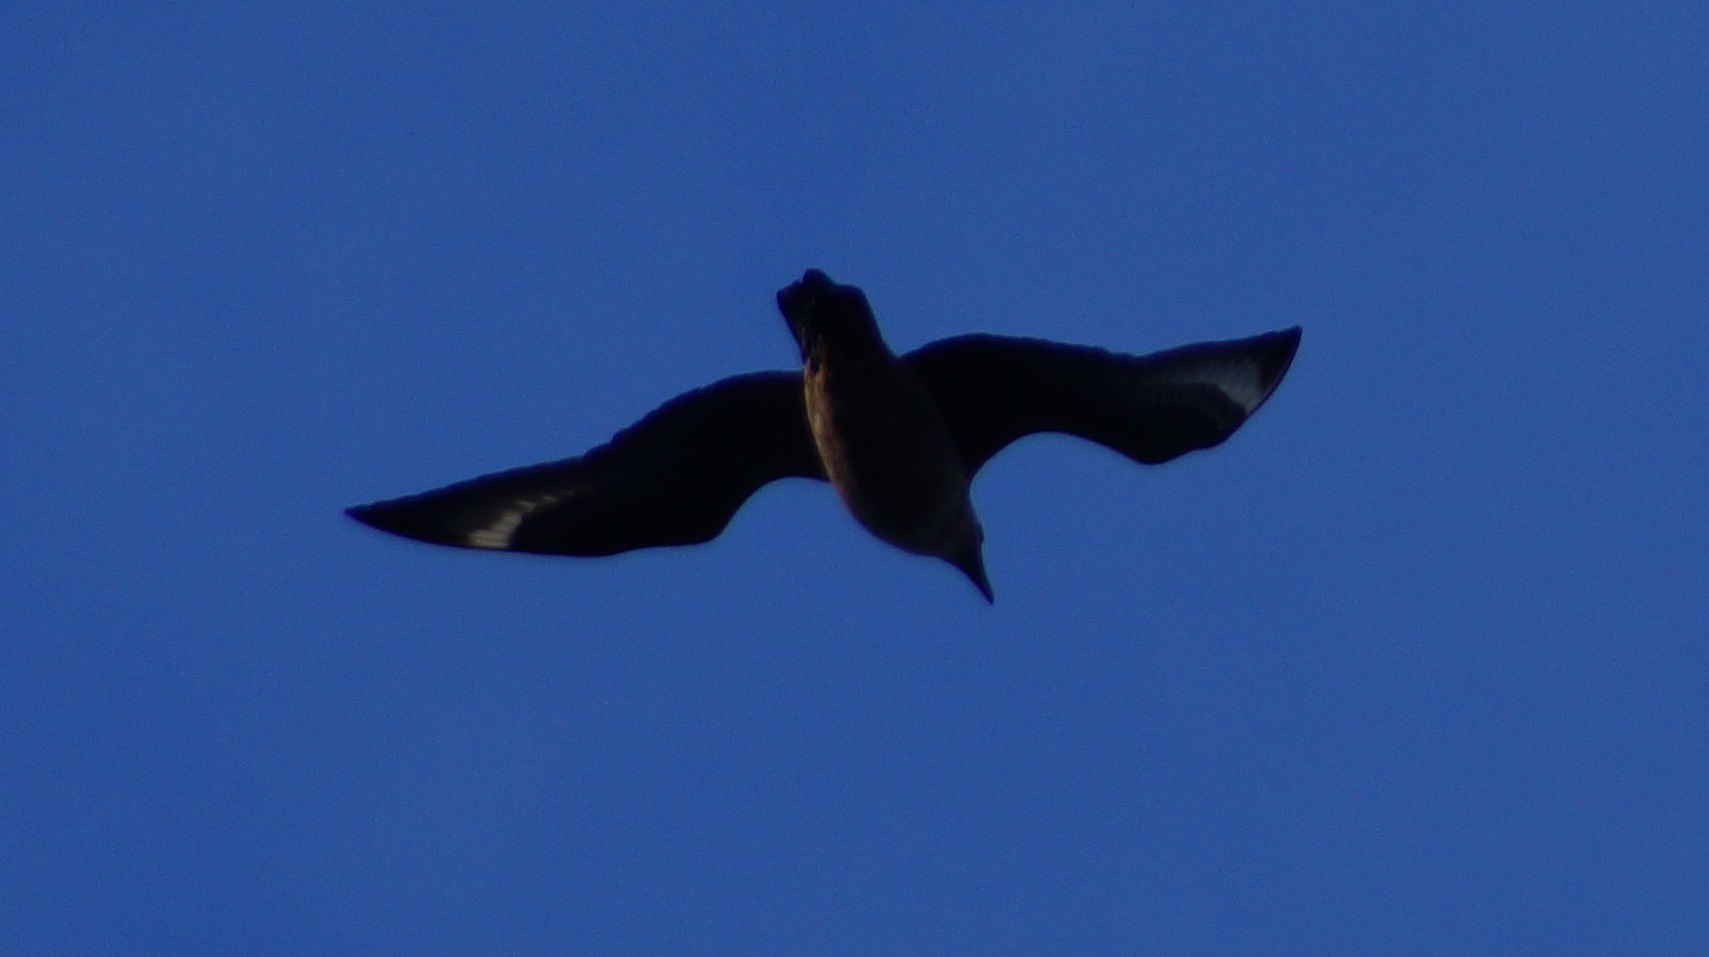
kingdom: Animalia
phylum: Chordata
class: Aves
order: Charadriiformes
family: Stercorariidae
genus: Stercorarius
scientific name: Stercorarius skua
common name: Great skua
